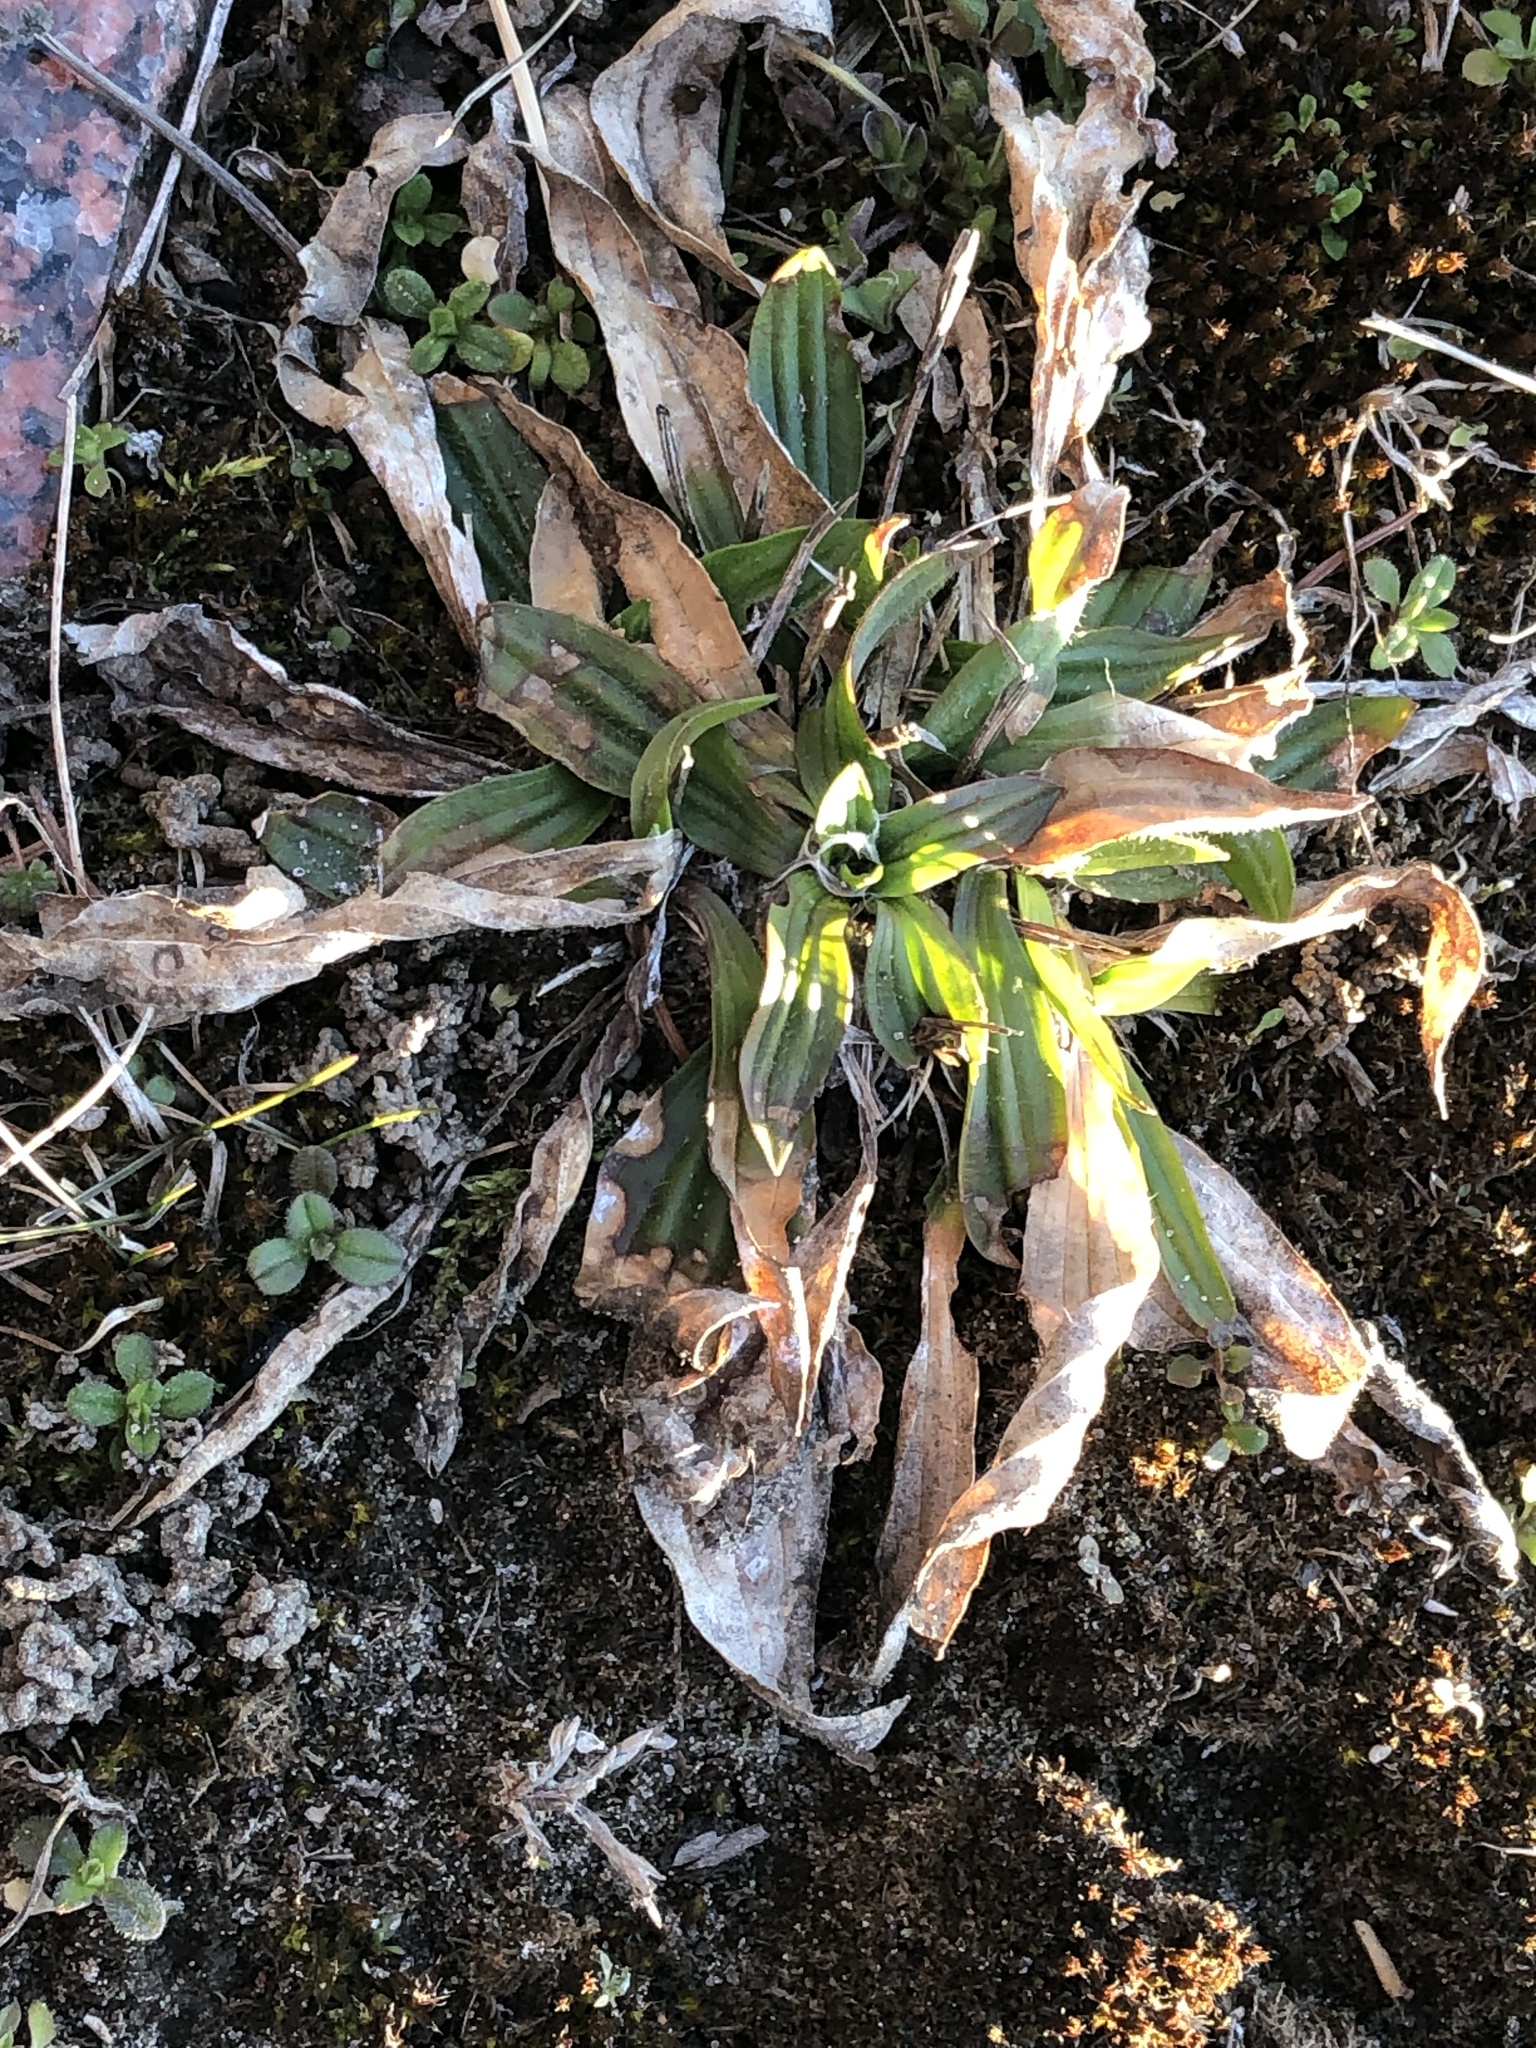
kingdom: Plantae
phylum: Tracheophyta
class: Magnoliopsida
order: Lamiales
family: Plantaginaceae
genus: Plantago
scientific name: Plantago lanceolata
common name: Ribwort plantain
